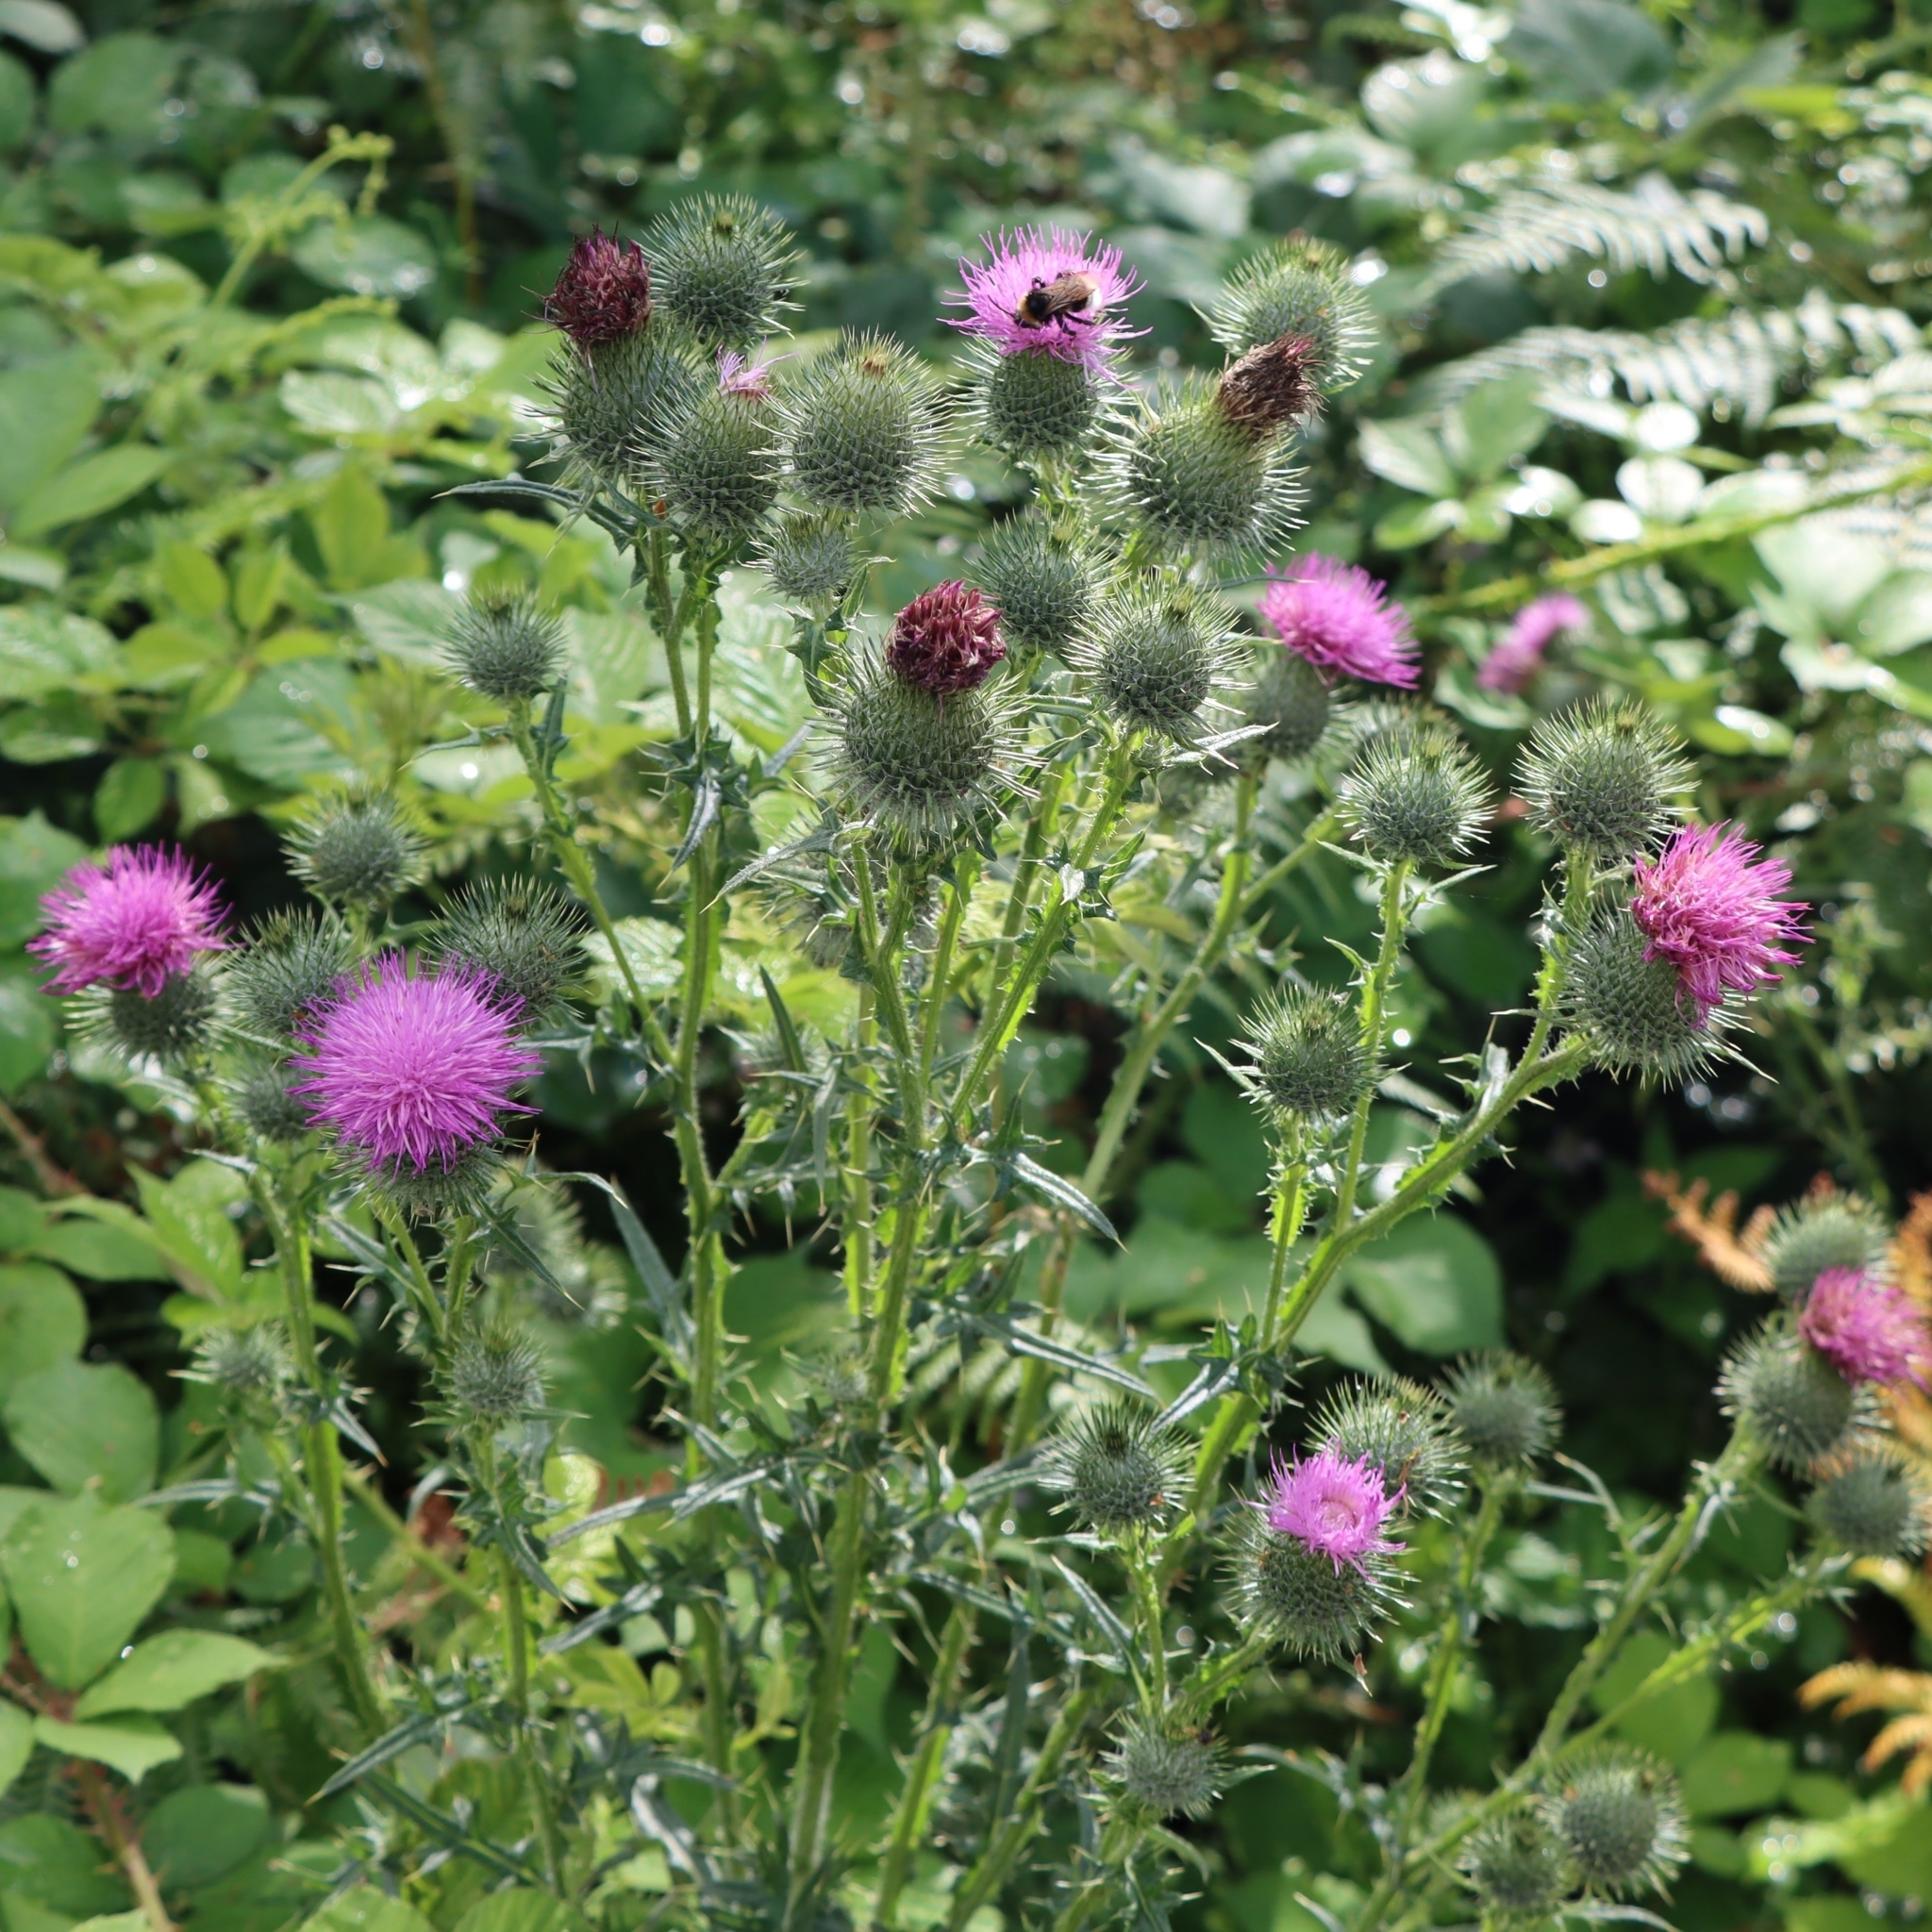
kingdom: Plantae
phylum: Tracheophyta
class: Magnoliopsida
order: Asterales
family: Asteraceae
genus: Cirsium
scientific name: Cirsium vulgare
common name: Bull thistle
